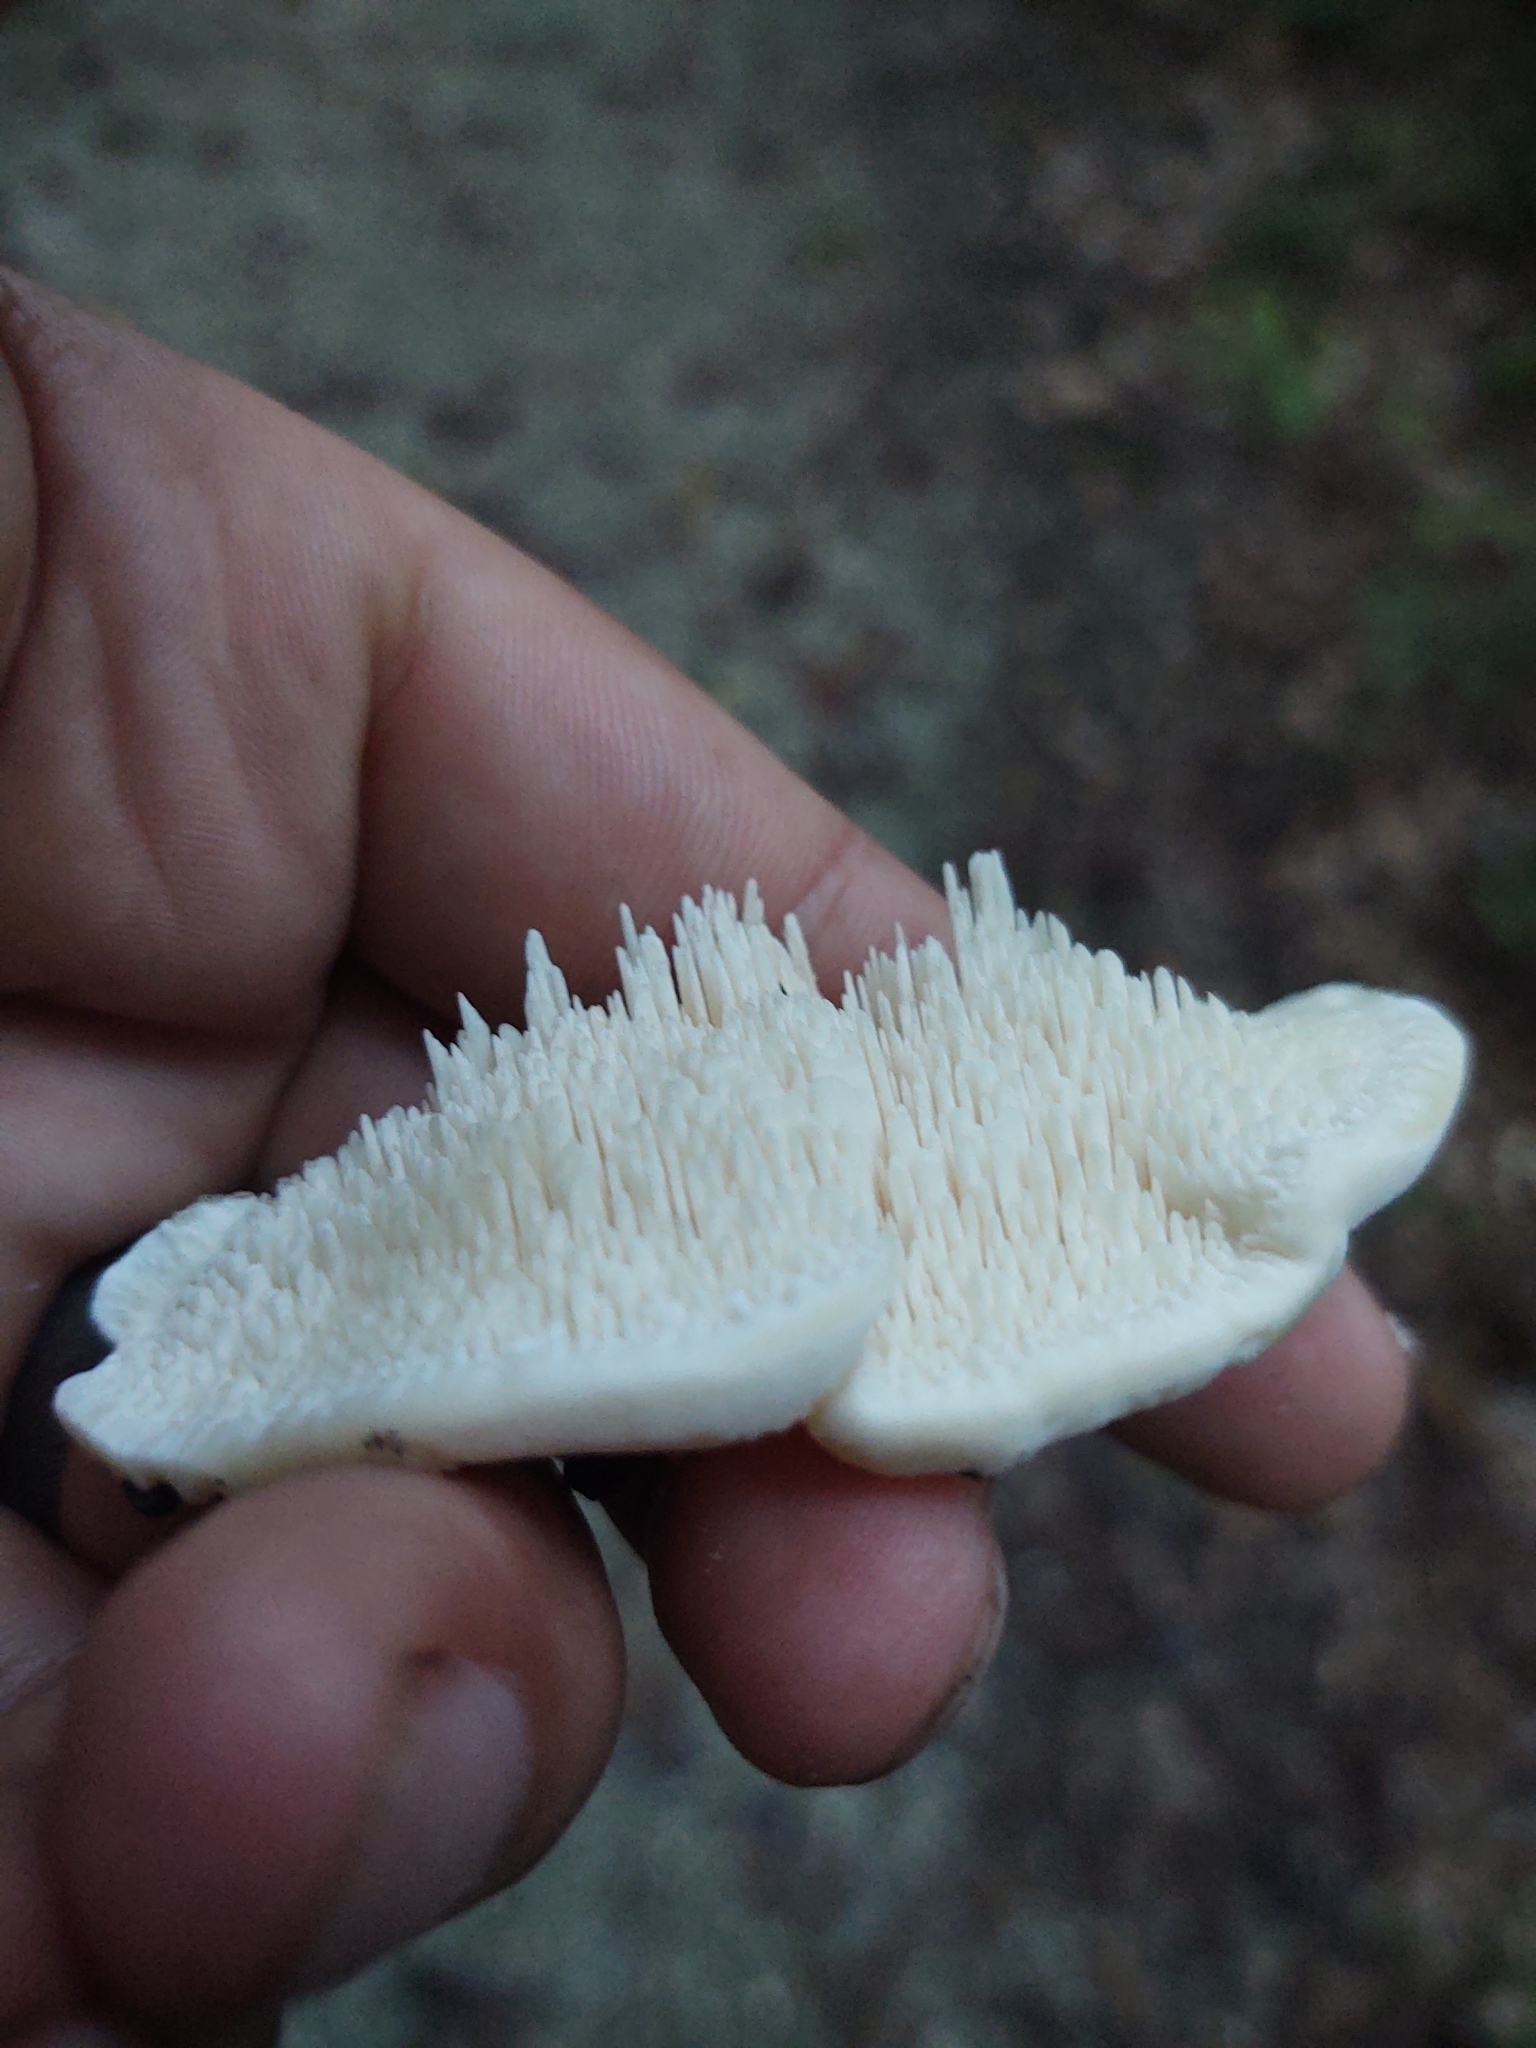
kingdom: Fungi
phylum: Basidiomycota
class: Agaricomycetes
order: Polyporales
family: Meruliaceae
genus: Irpiciporus
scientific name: Irpiciporus pachyodon
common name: Marshmallow polypore
